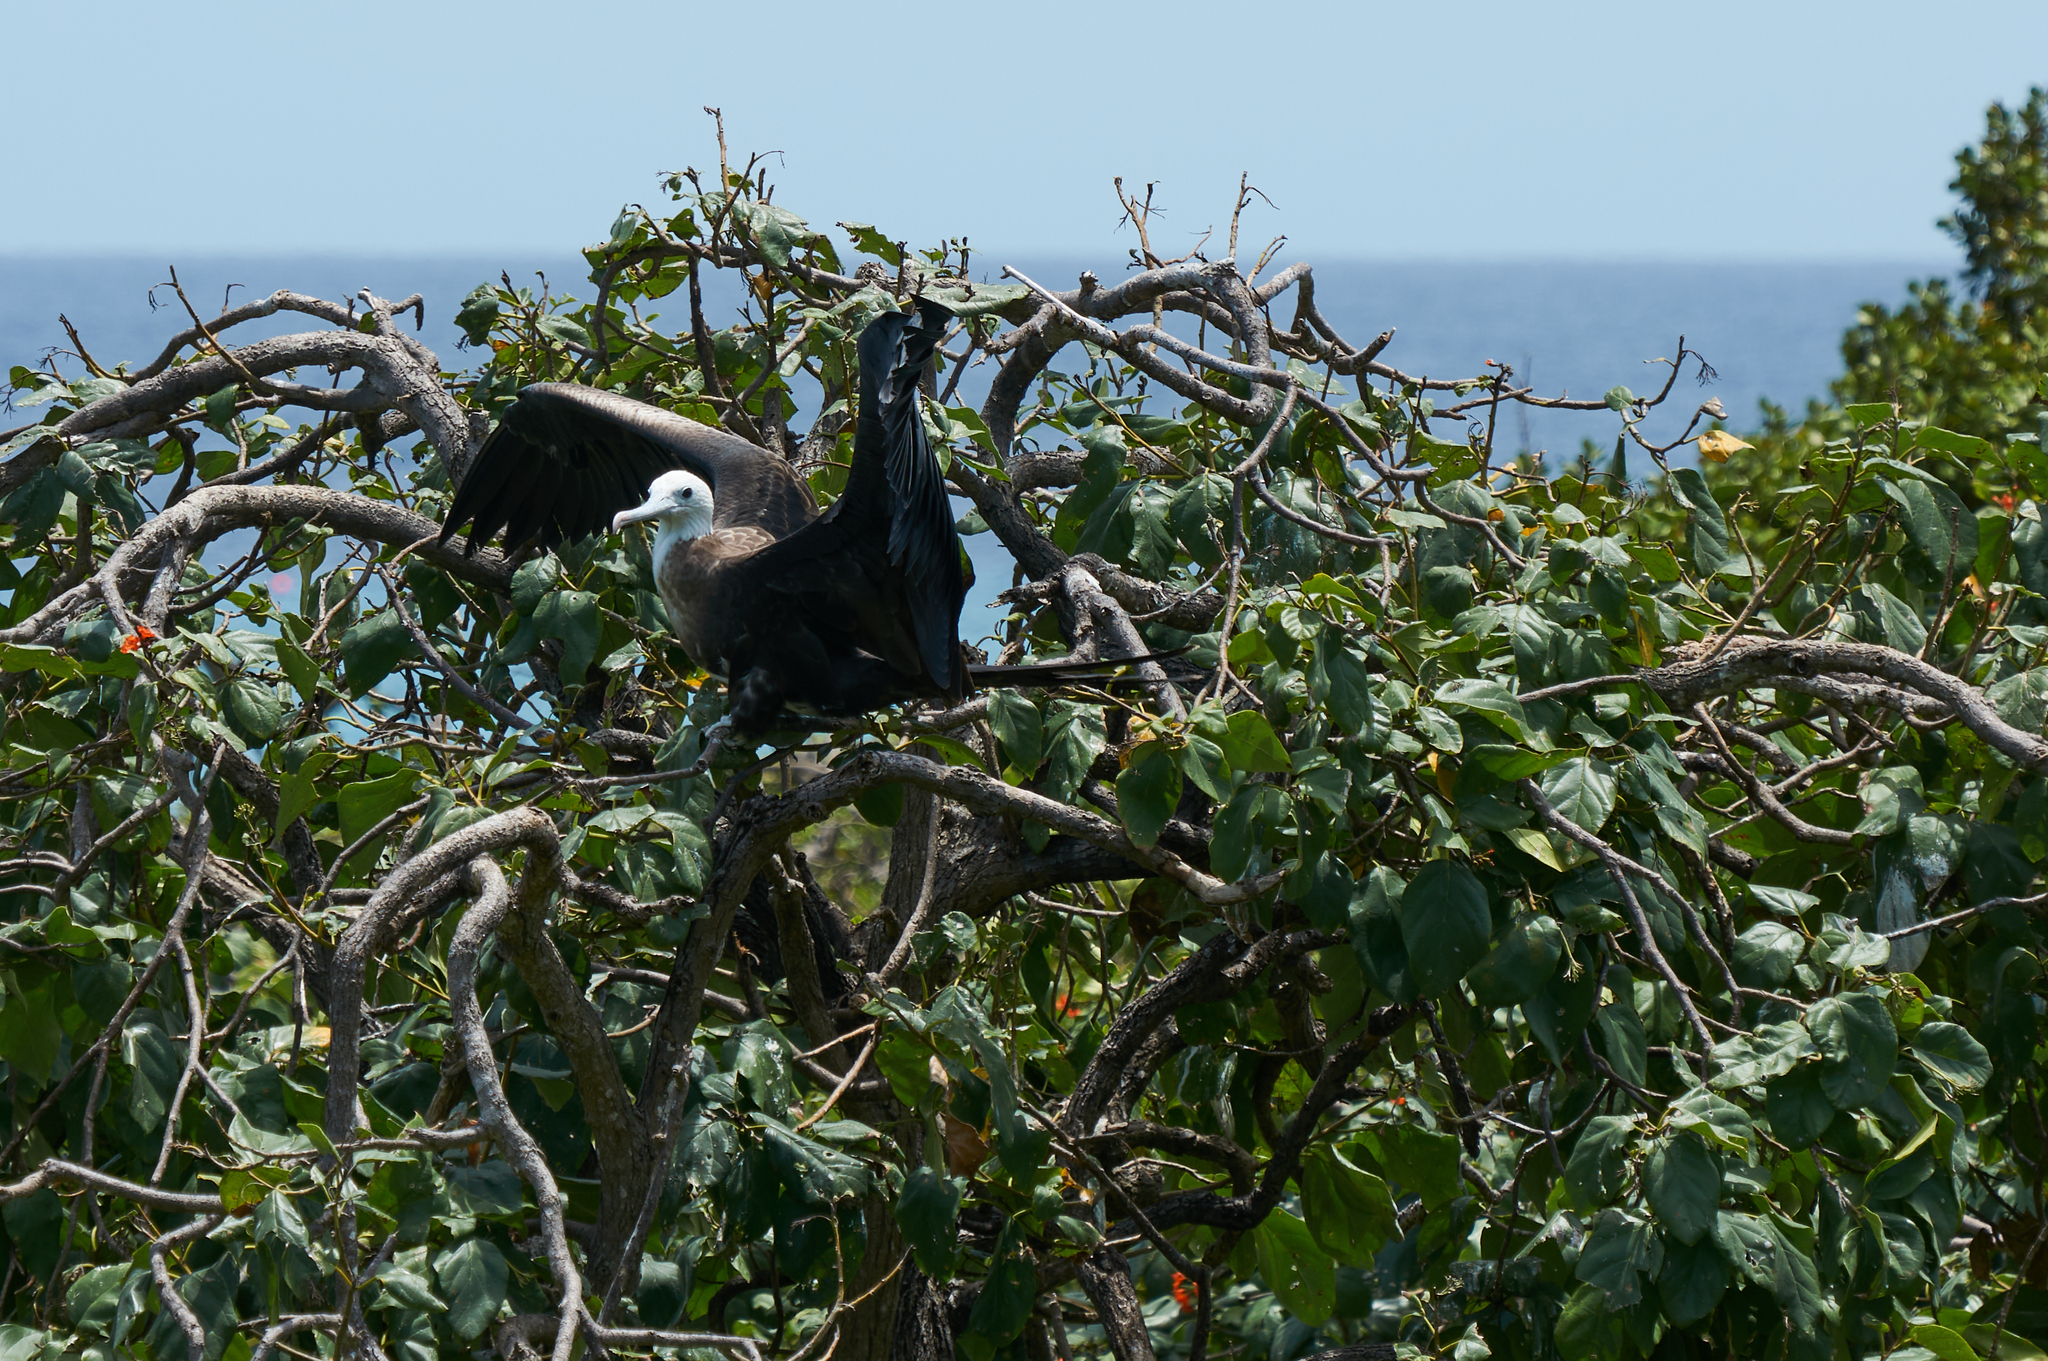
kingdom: Animalia
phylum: Chordata
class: Aves
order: Suliformes
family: Fregatidae
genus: Fregata
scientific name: Fregata magnificens
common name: Magnificent frigatebird
